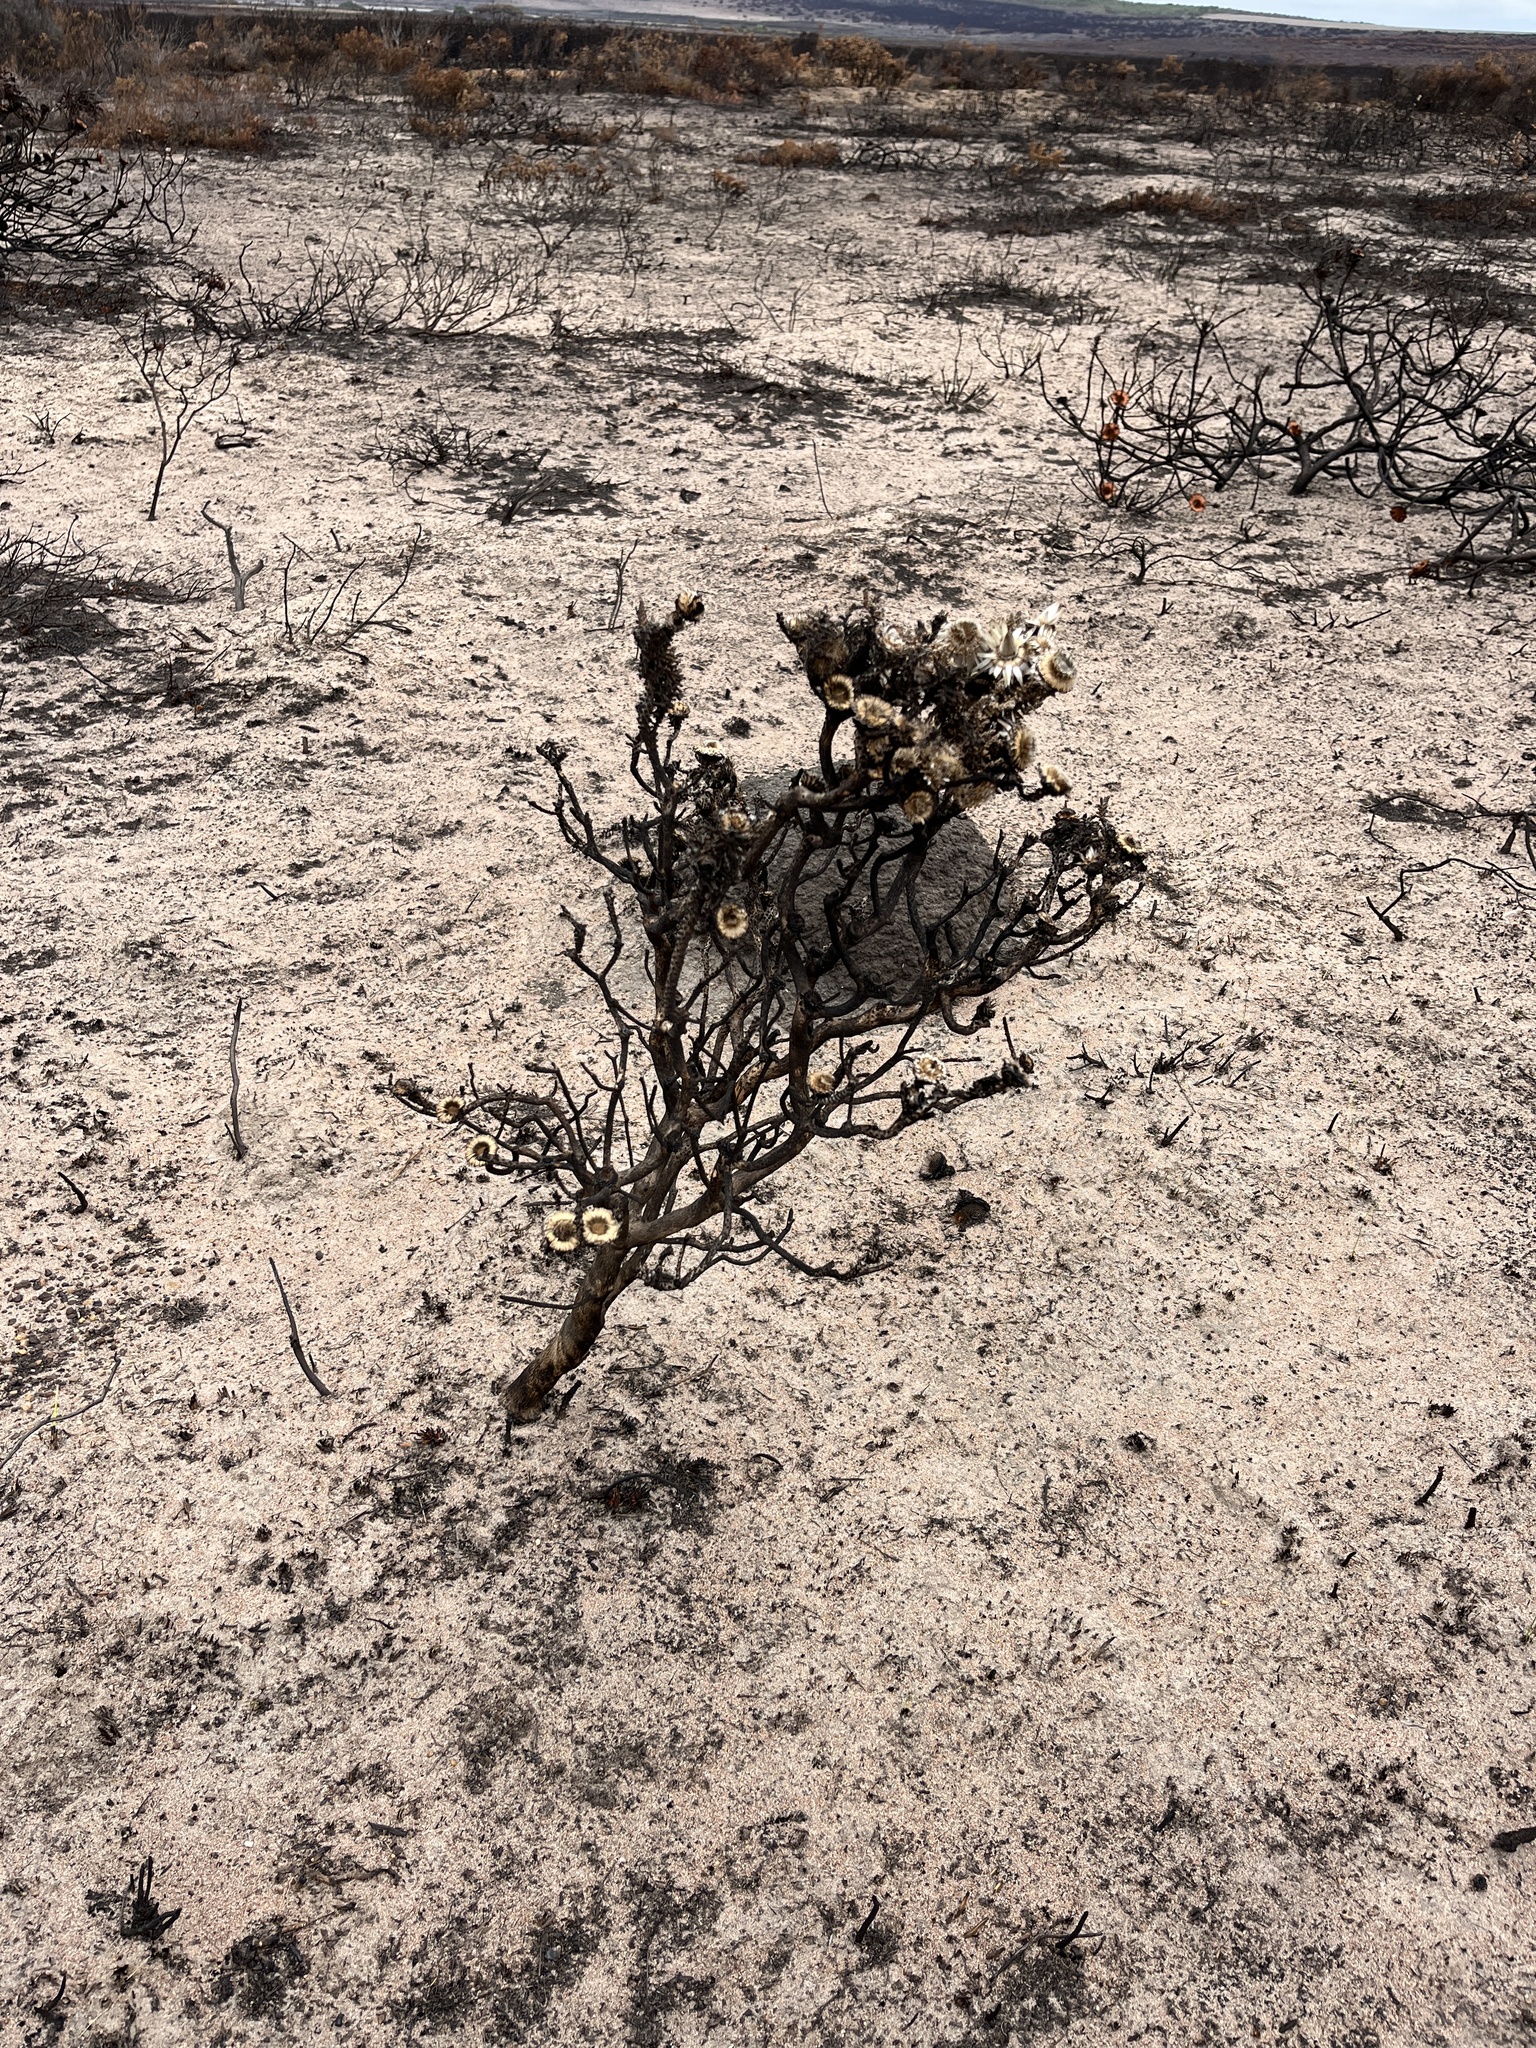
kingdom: Plantae
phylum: Tracheophyta
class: Magnoliopsida
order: Asterales
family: Asteraceae
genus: Phaenocoma
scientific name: Phaenocoma prolifera
